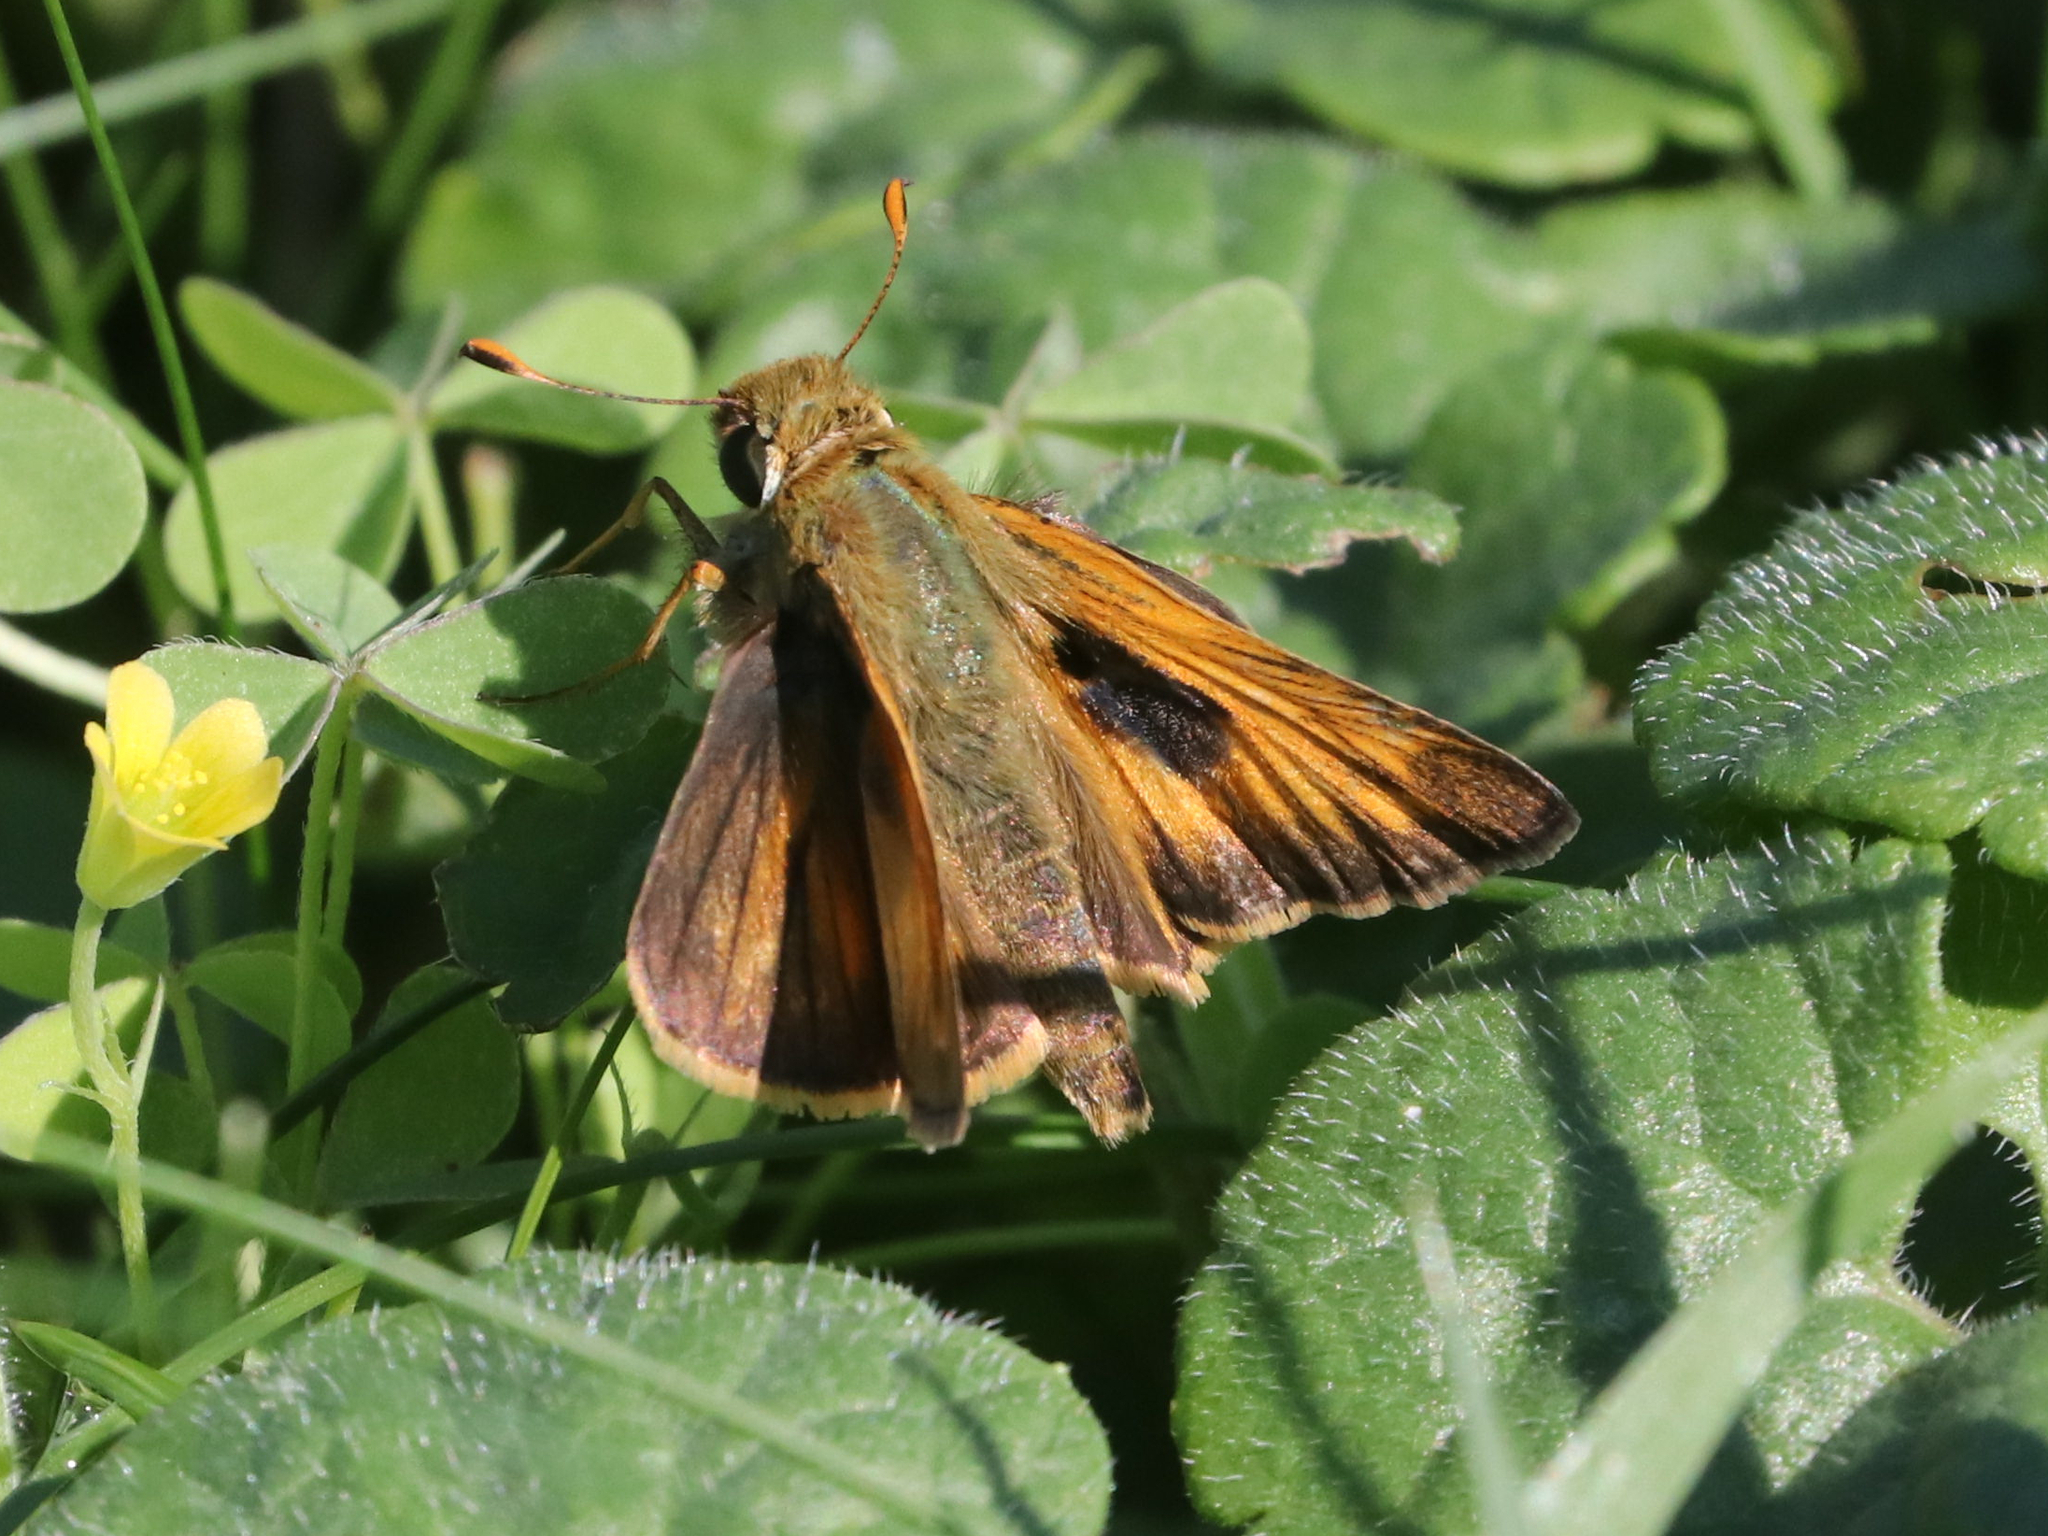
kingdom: Animalia
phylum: Arthropoda
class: Insecta
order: Lepidoptera
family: Hesperiidae
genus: Atalopedes
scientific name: Atalopedes
